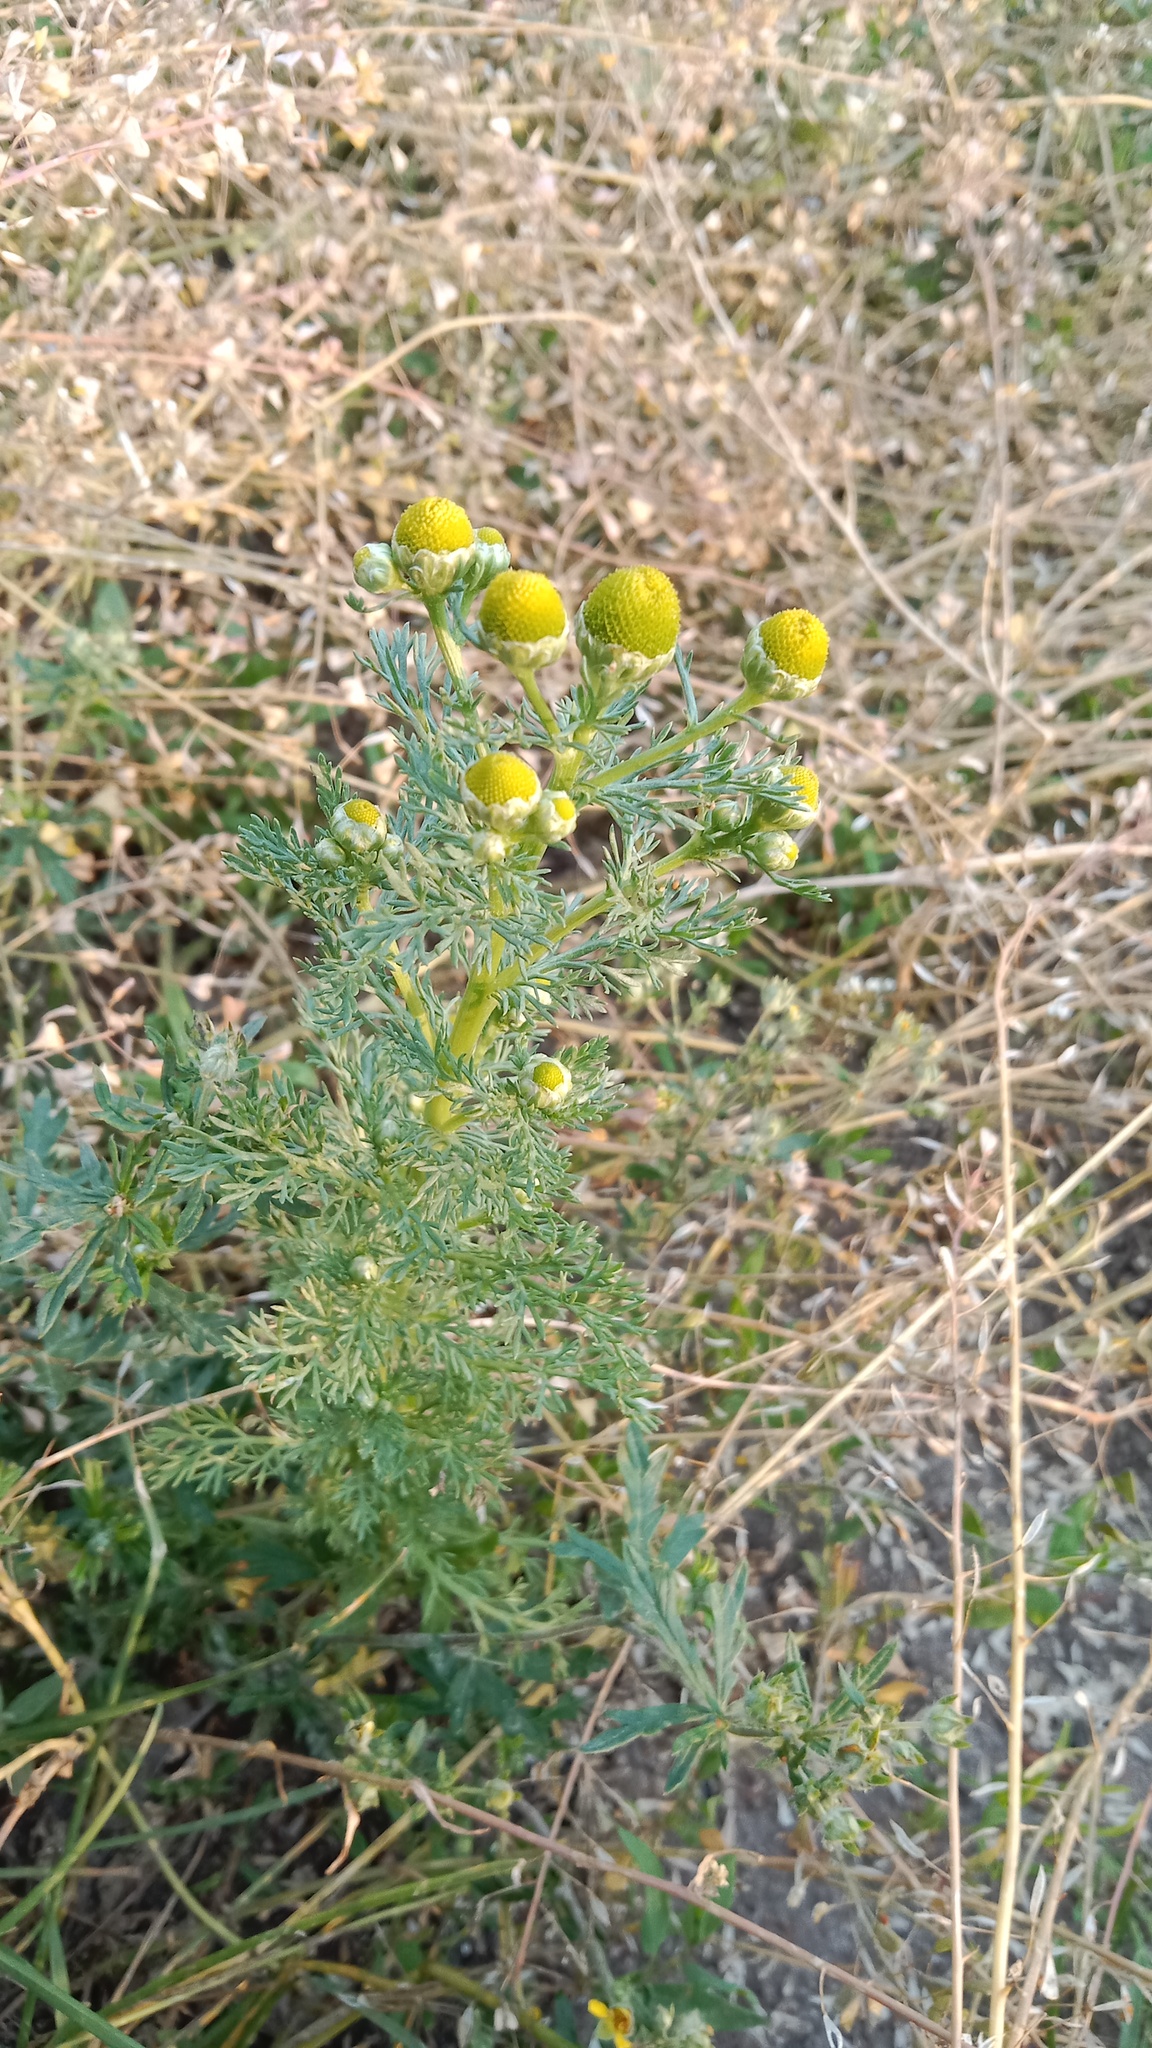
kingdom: Plantae
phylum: Tracheophyta
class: Magnoliopsida
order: Asterales
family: Asteraceae
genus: Matricaria
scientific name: Matricaria discoidea
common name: Disc mayweed
